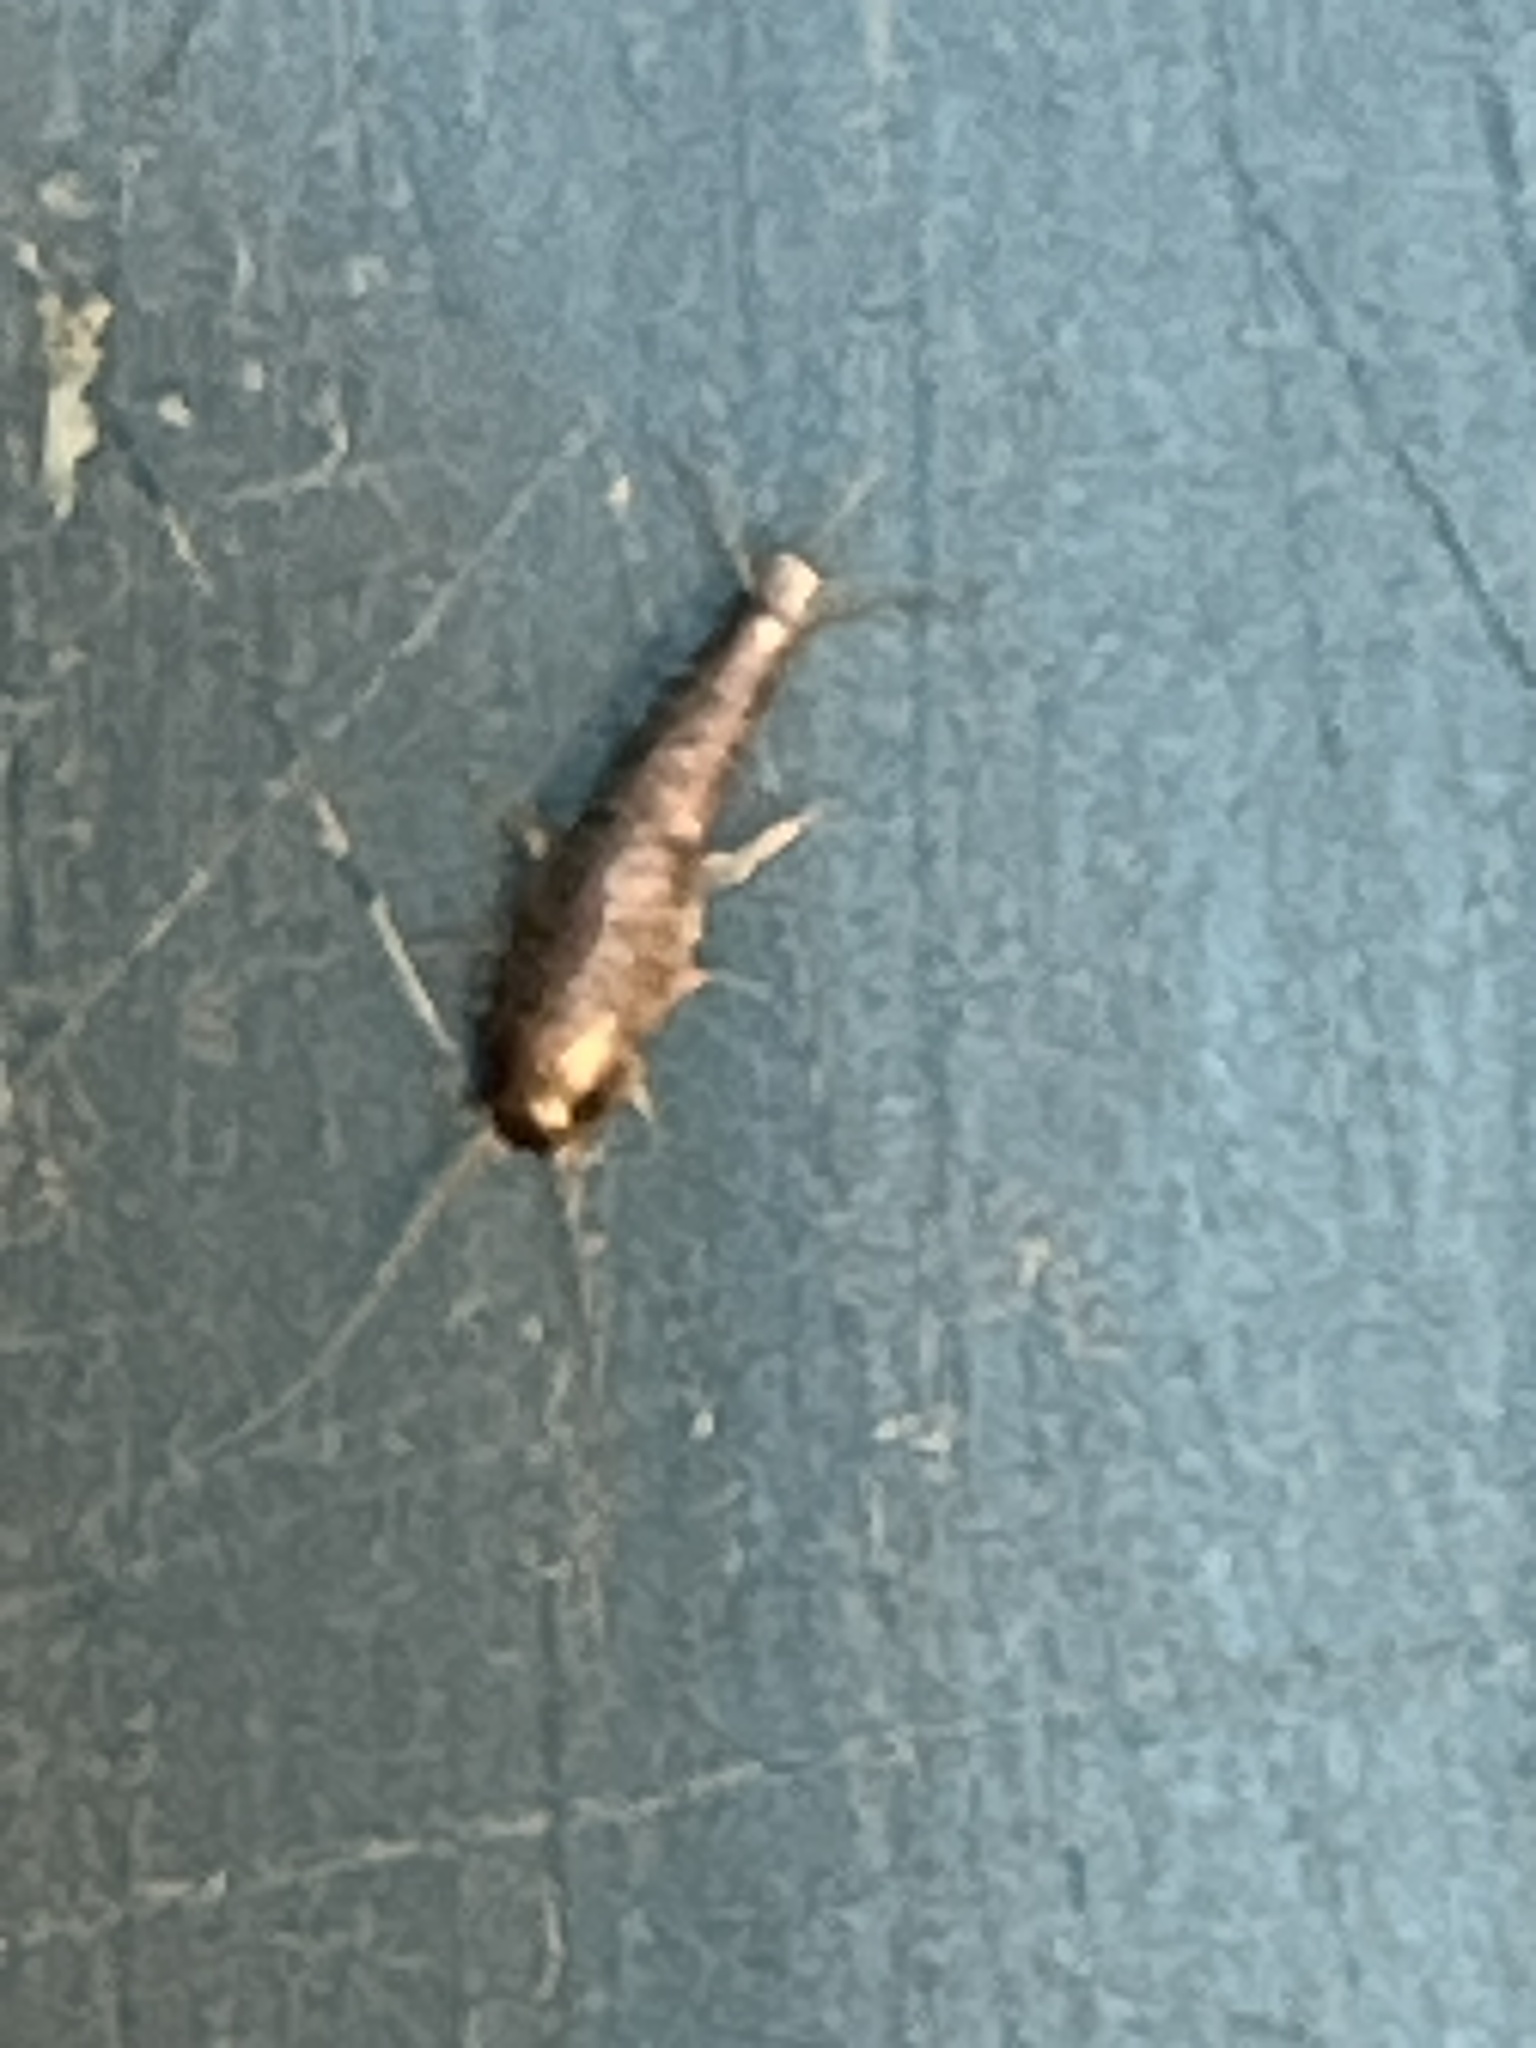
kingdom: Animalia
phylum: Arthropoda
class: Insecta
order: Zygentoma
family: Lepismatidae
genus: Lepisma
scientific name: Lepisma saccharinum
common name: Silverfish
